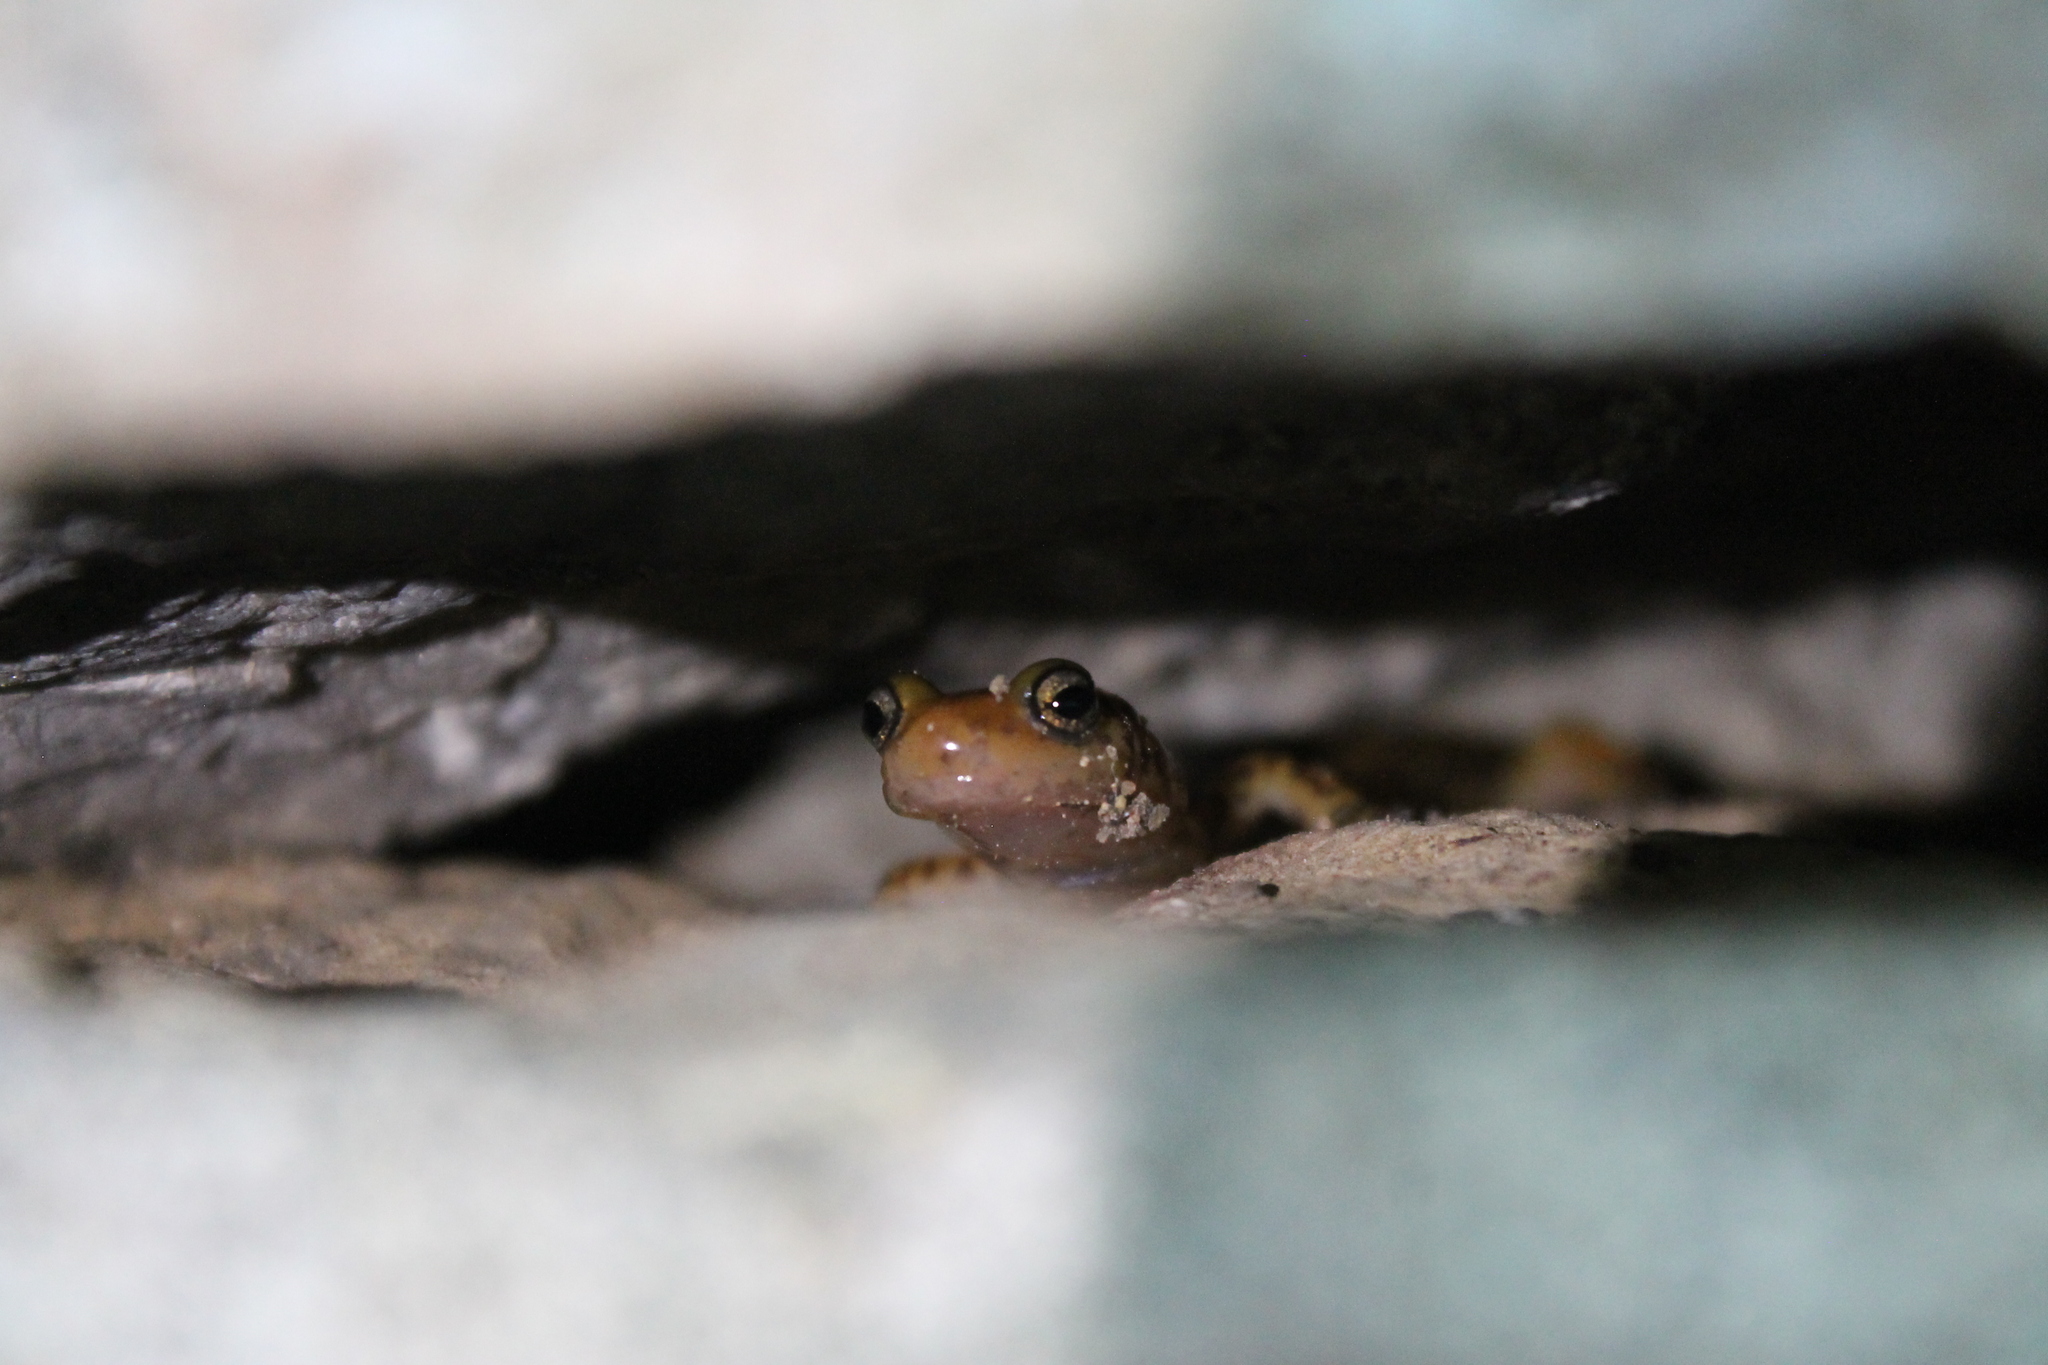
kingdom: Animalia
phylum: Chordata
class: Amphibia
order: Caudata
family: Plethodontidae
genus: Eurycea
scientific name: Eurycea longicauda
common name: Long-tailed salamander
